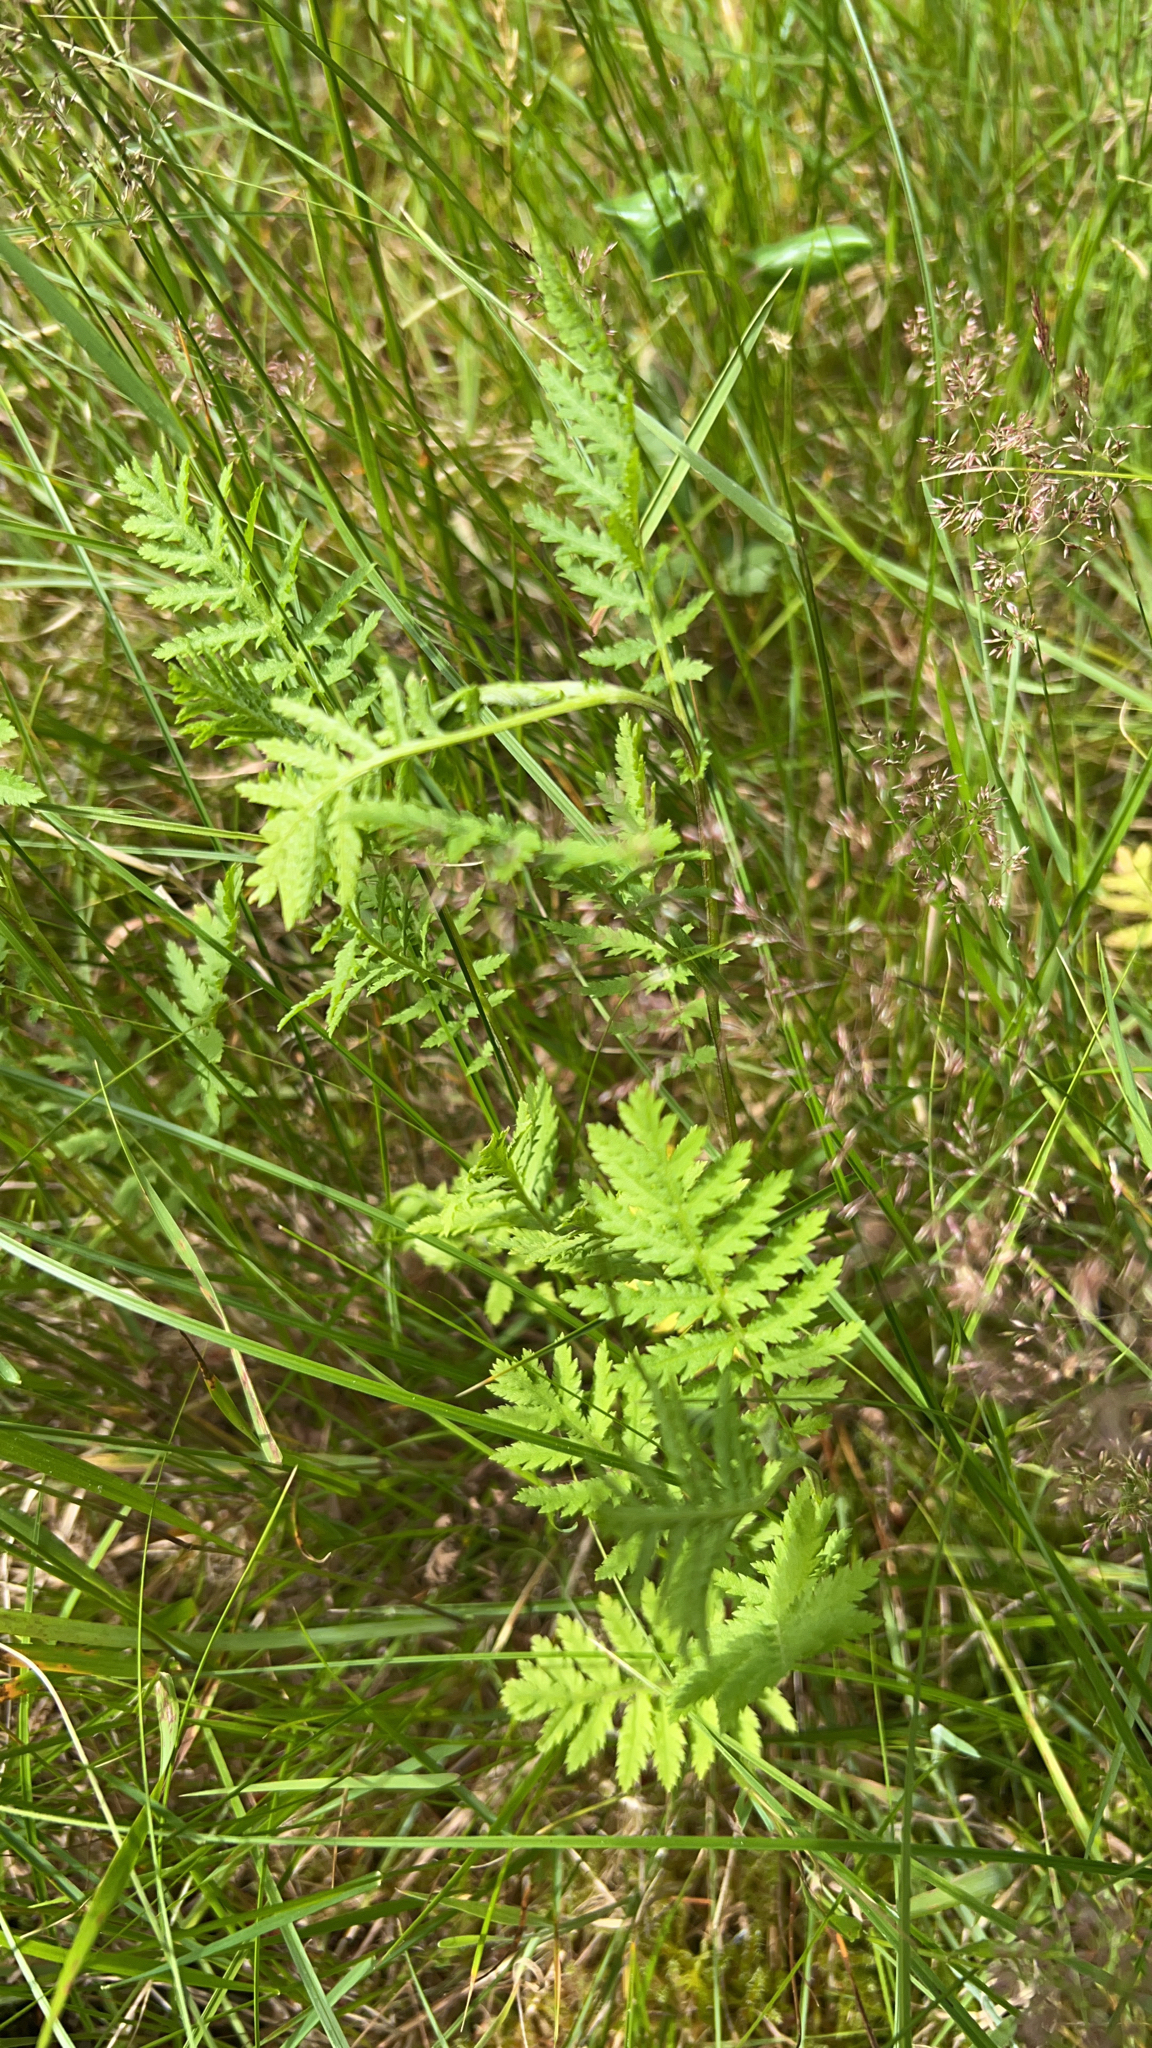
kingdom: Plantae
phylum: Tracheophyta
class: Magnoliopsida
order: Asterales
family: Asteraceae
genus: Tanacetum
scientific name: Tanacetum vulgare
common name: Common tansy
